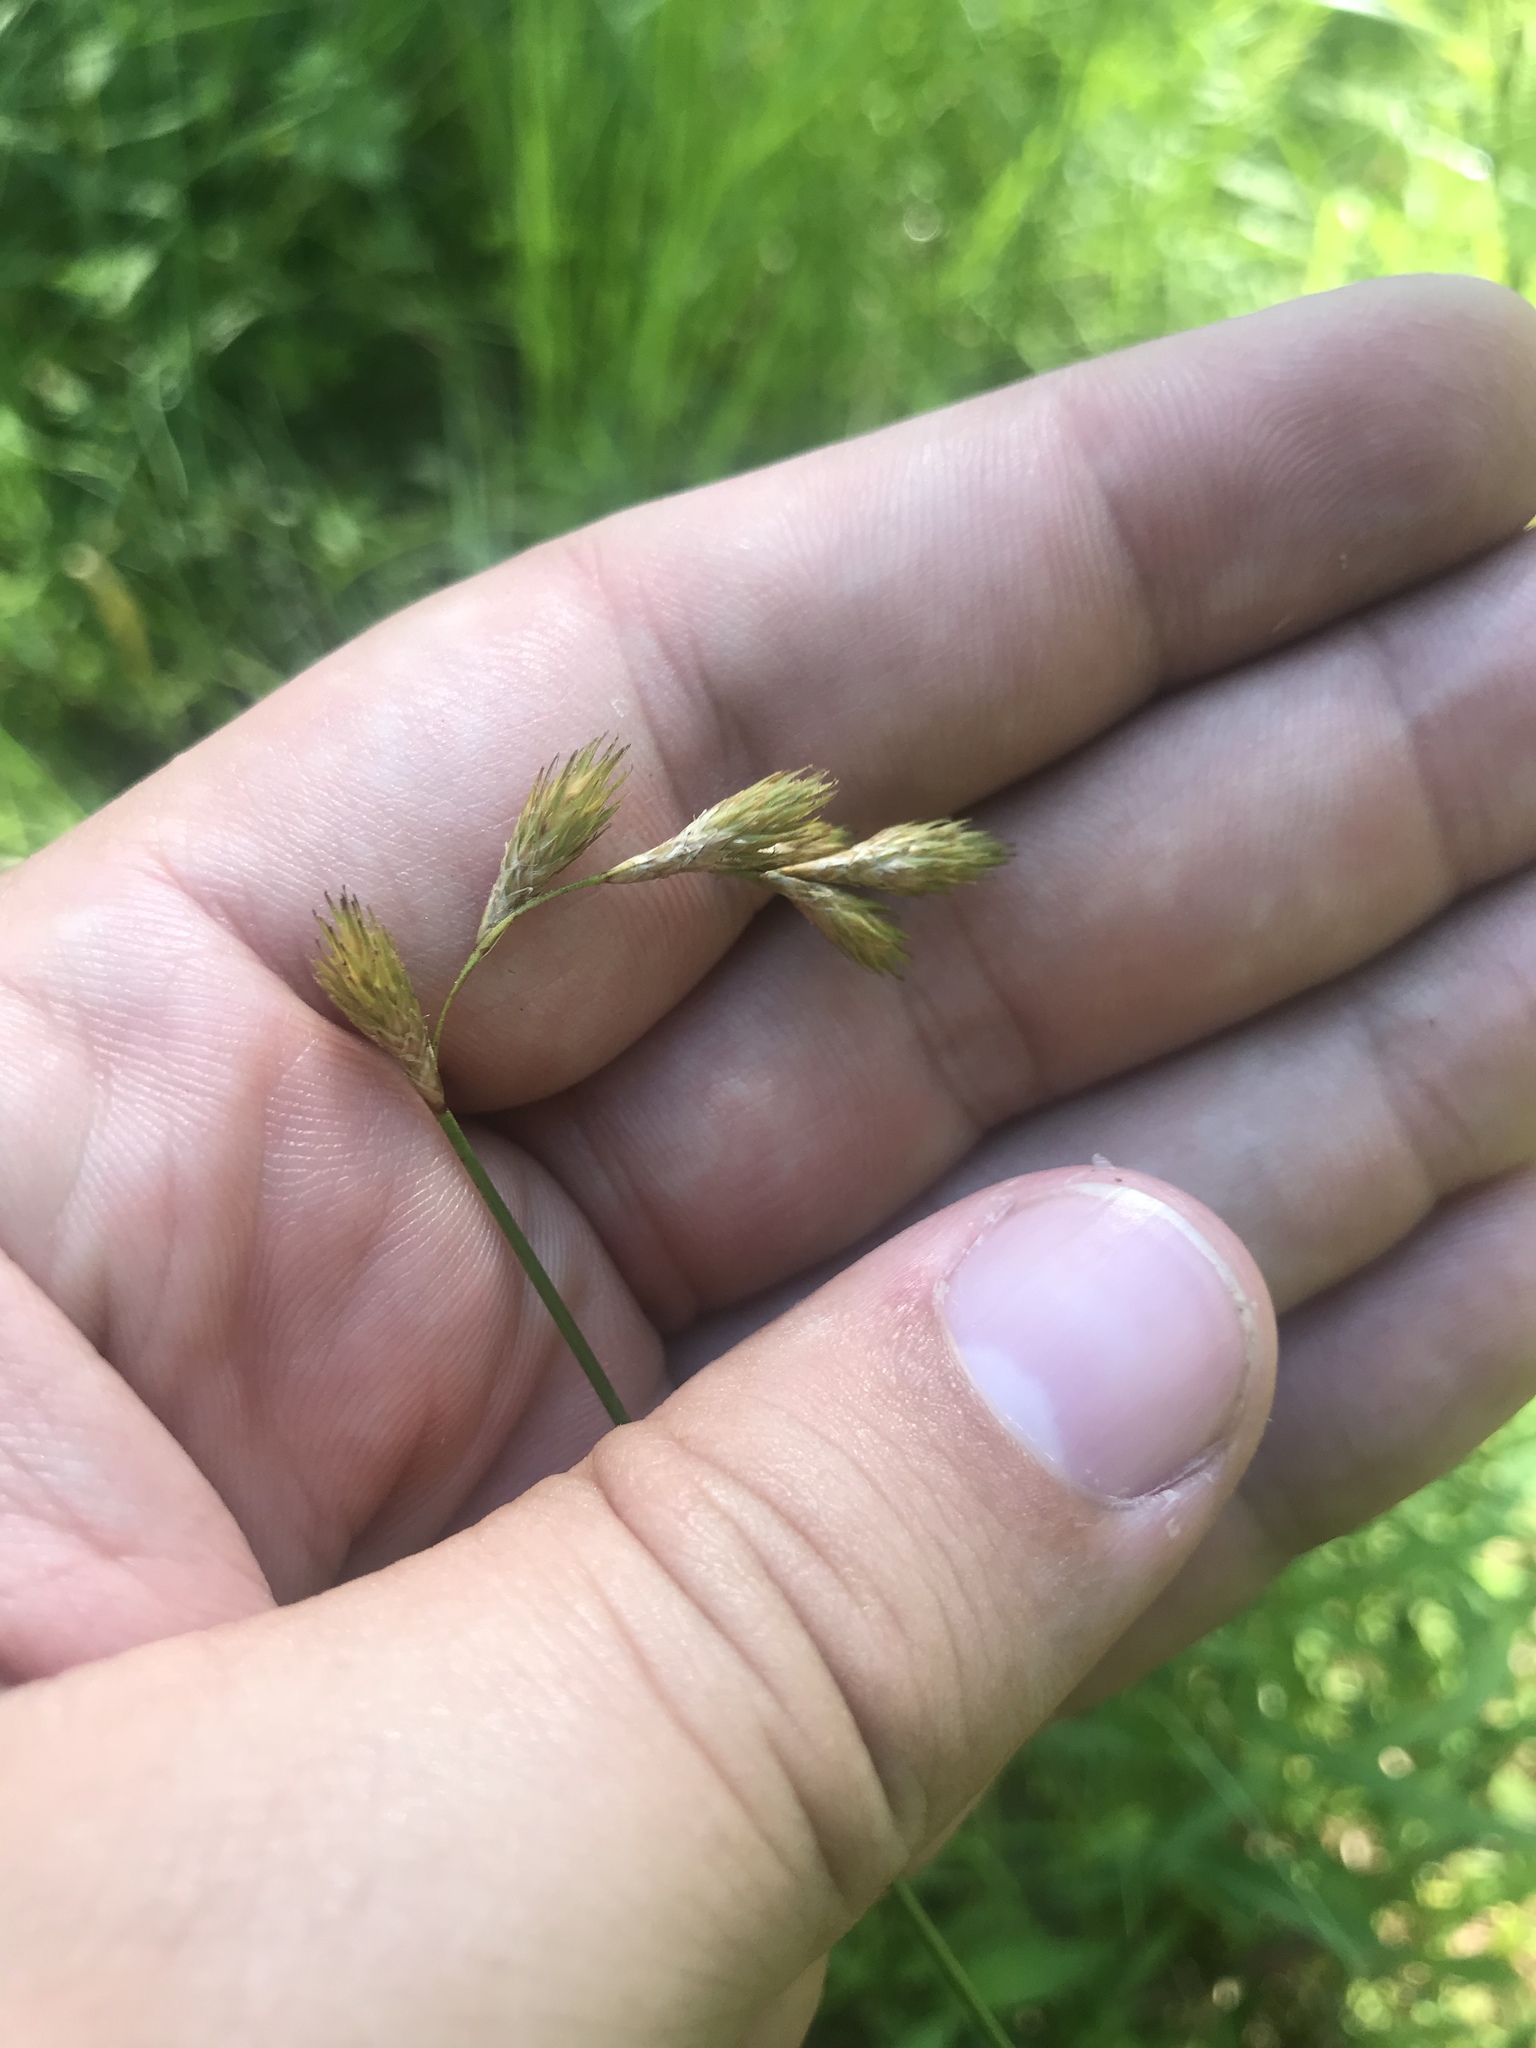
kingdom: Plantae
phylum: Tracheophyta
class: Liliopsida
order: Poales
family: Cyperaceae
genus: Carex
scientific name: Carex scoparia
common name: Broom sedge
